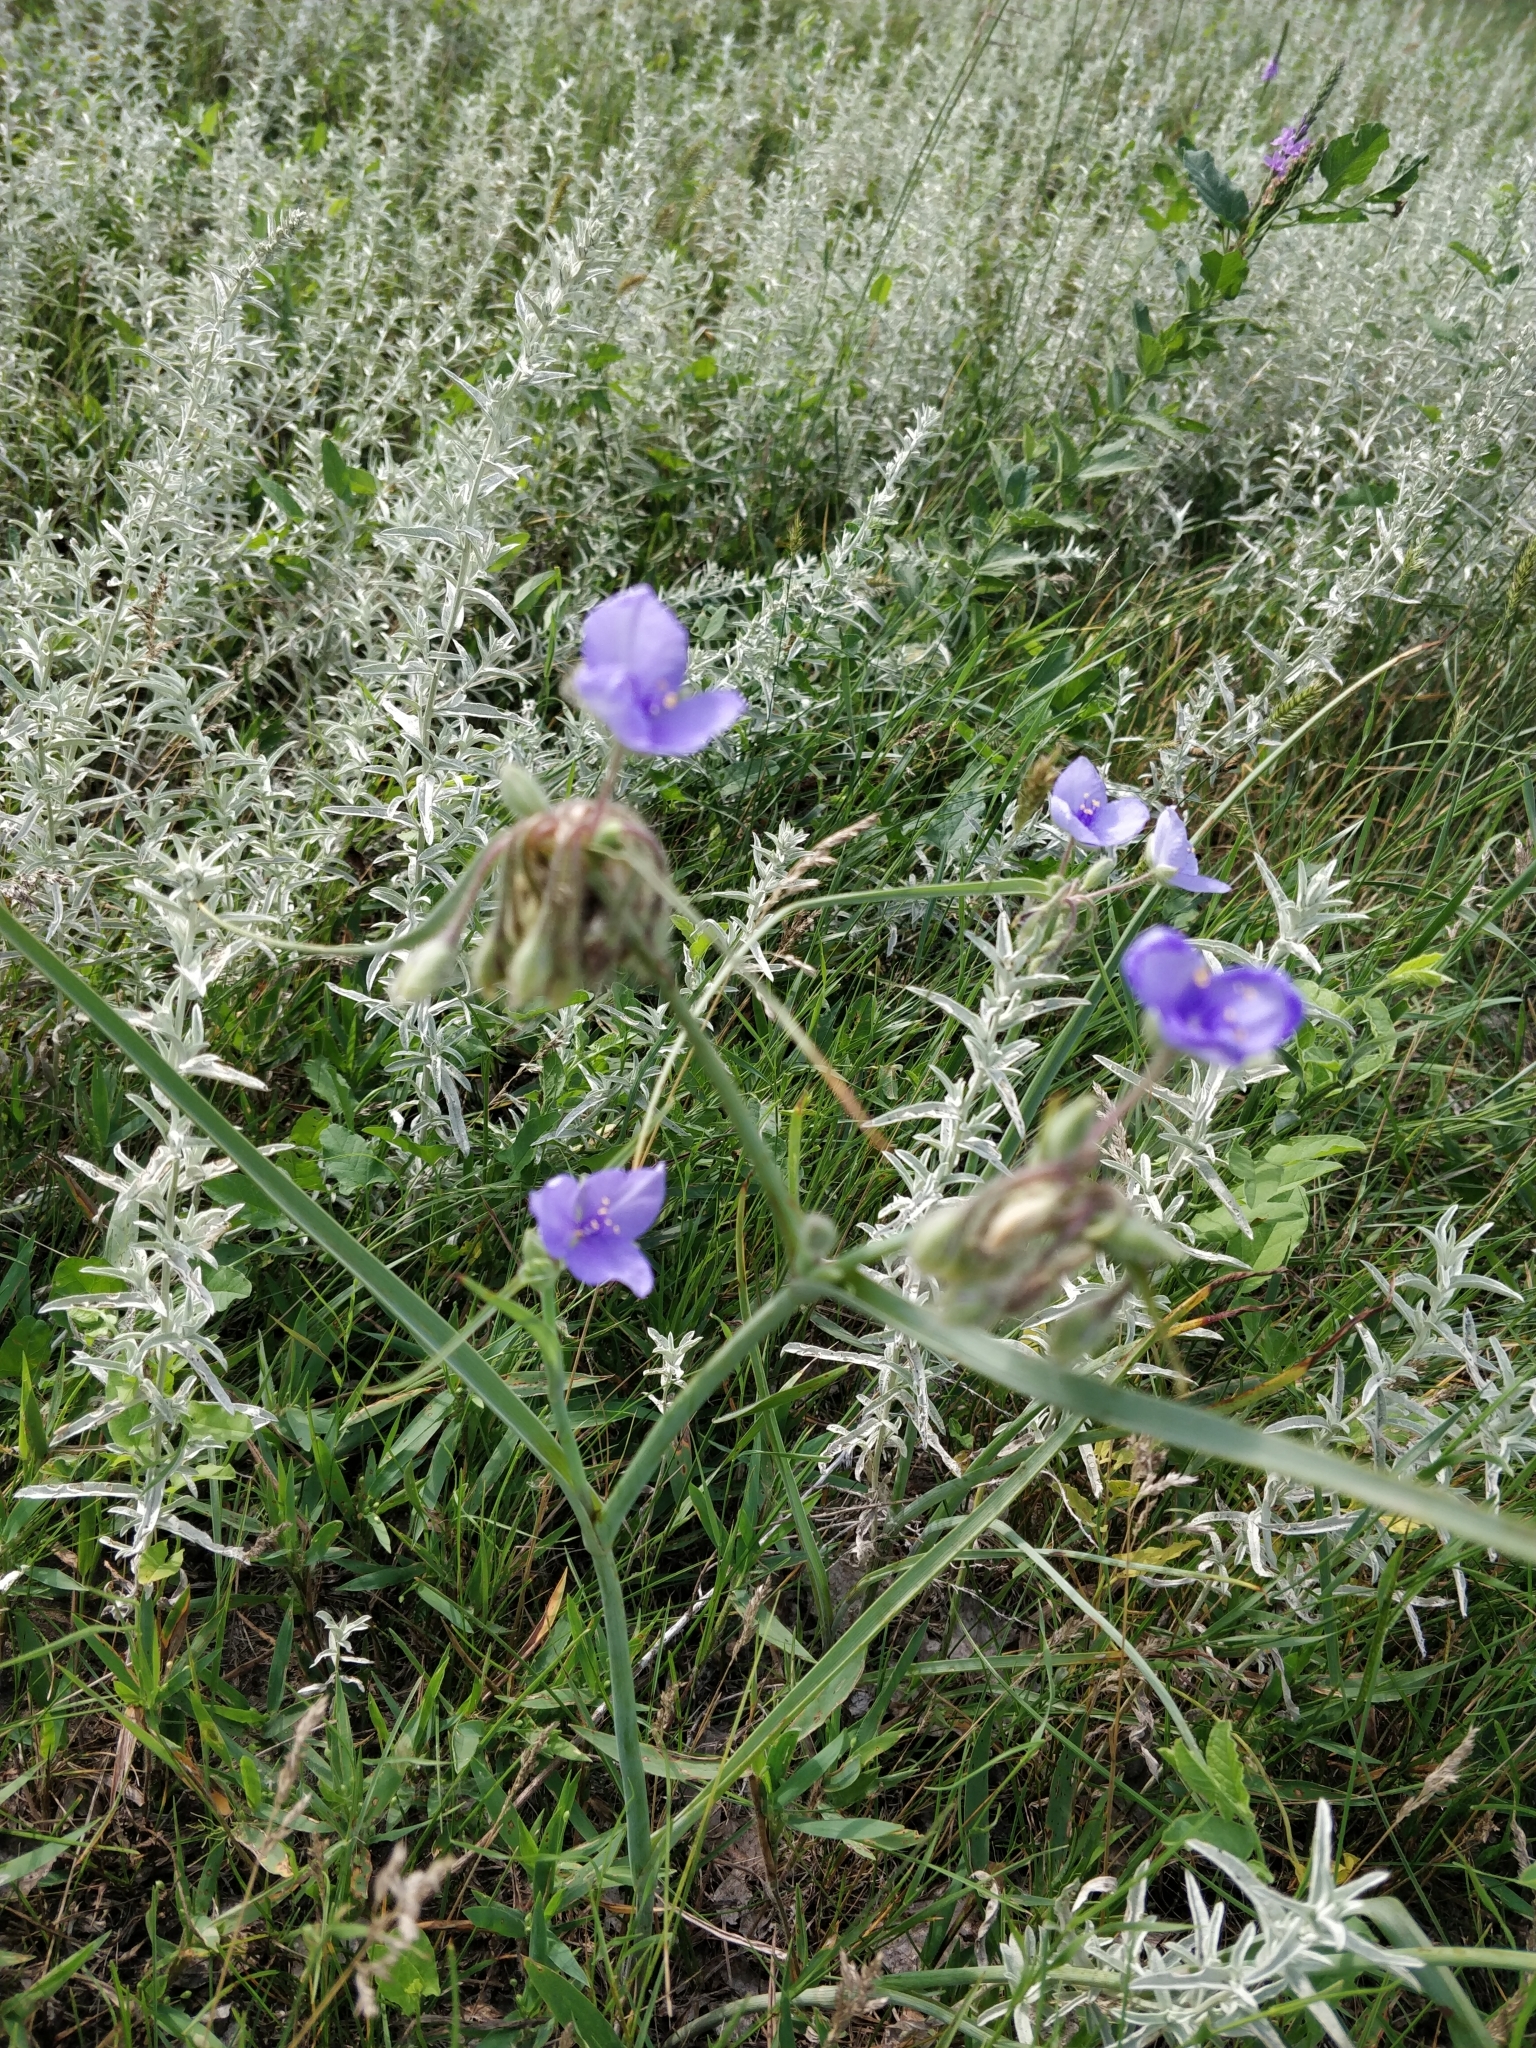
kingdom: Plantae
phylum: Tracheophyta
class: Liliopsida
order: Commelinales
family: Commelinaceae
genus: Tradescantia
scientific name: Tradescantia occidentalis
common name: Prairie spiderwort
